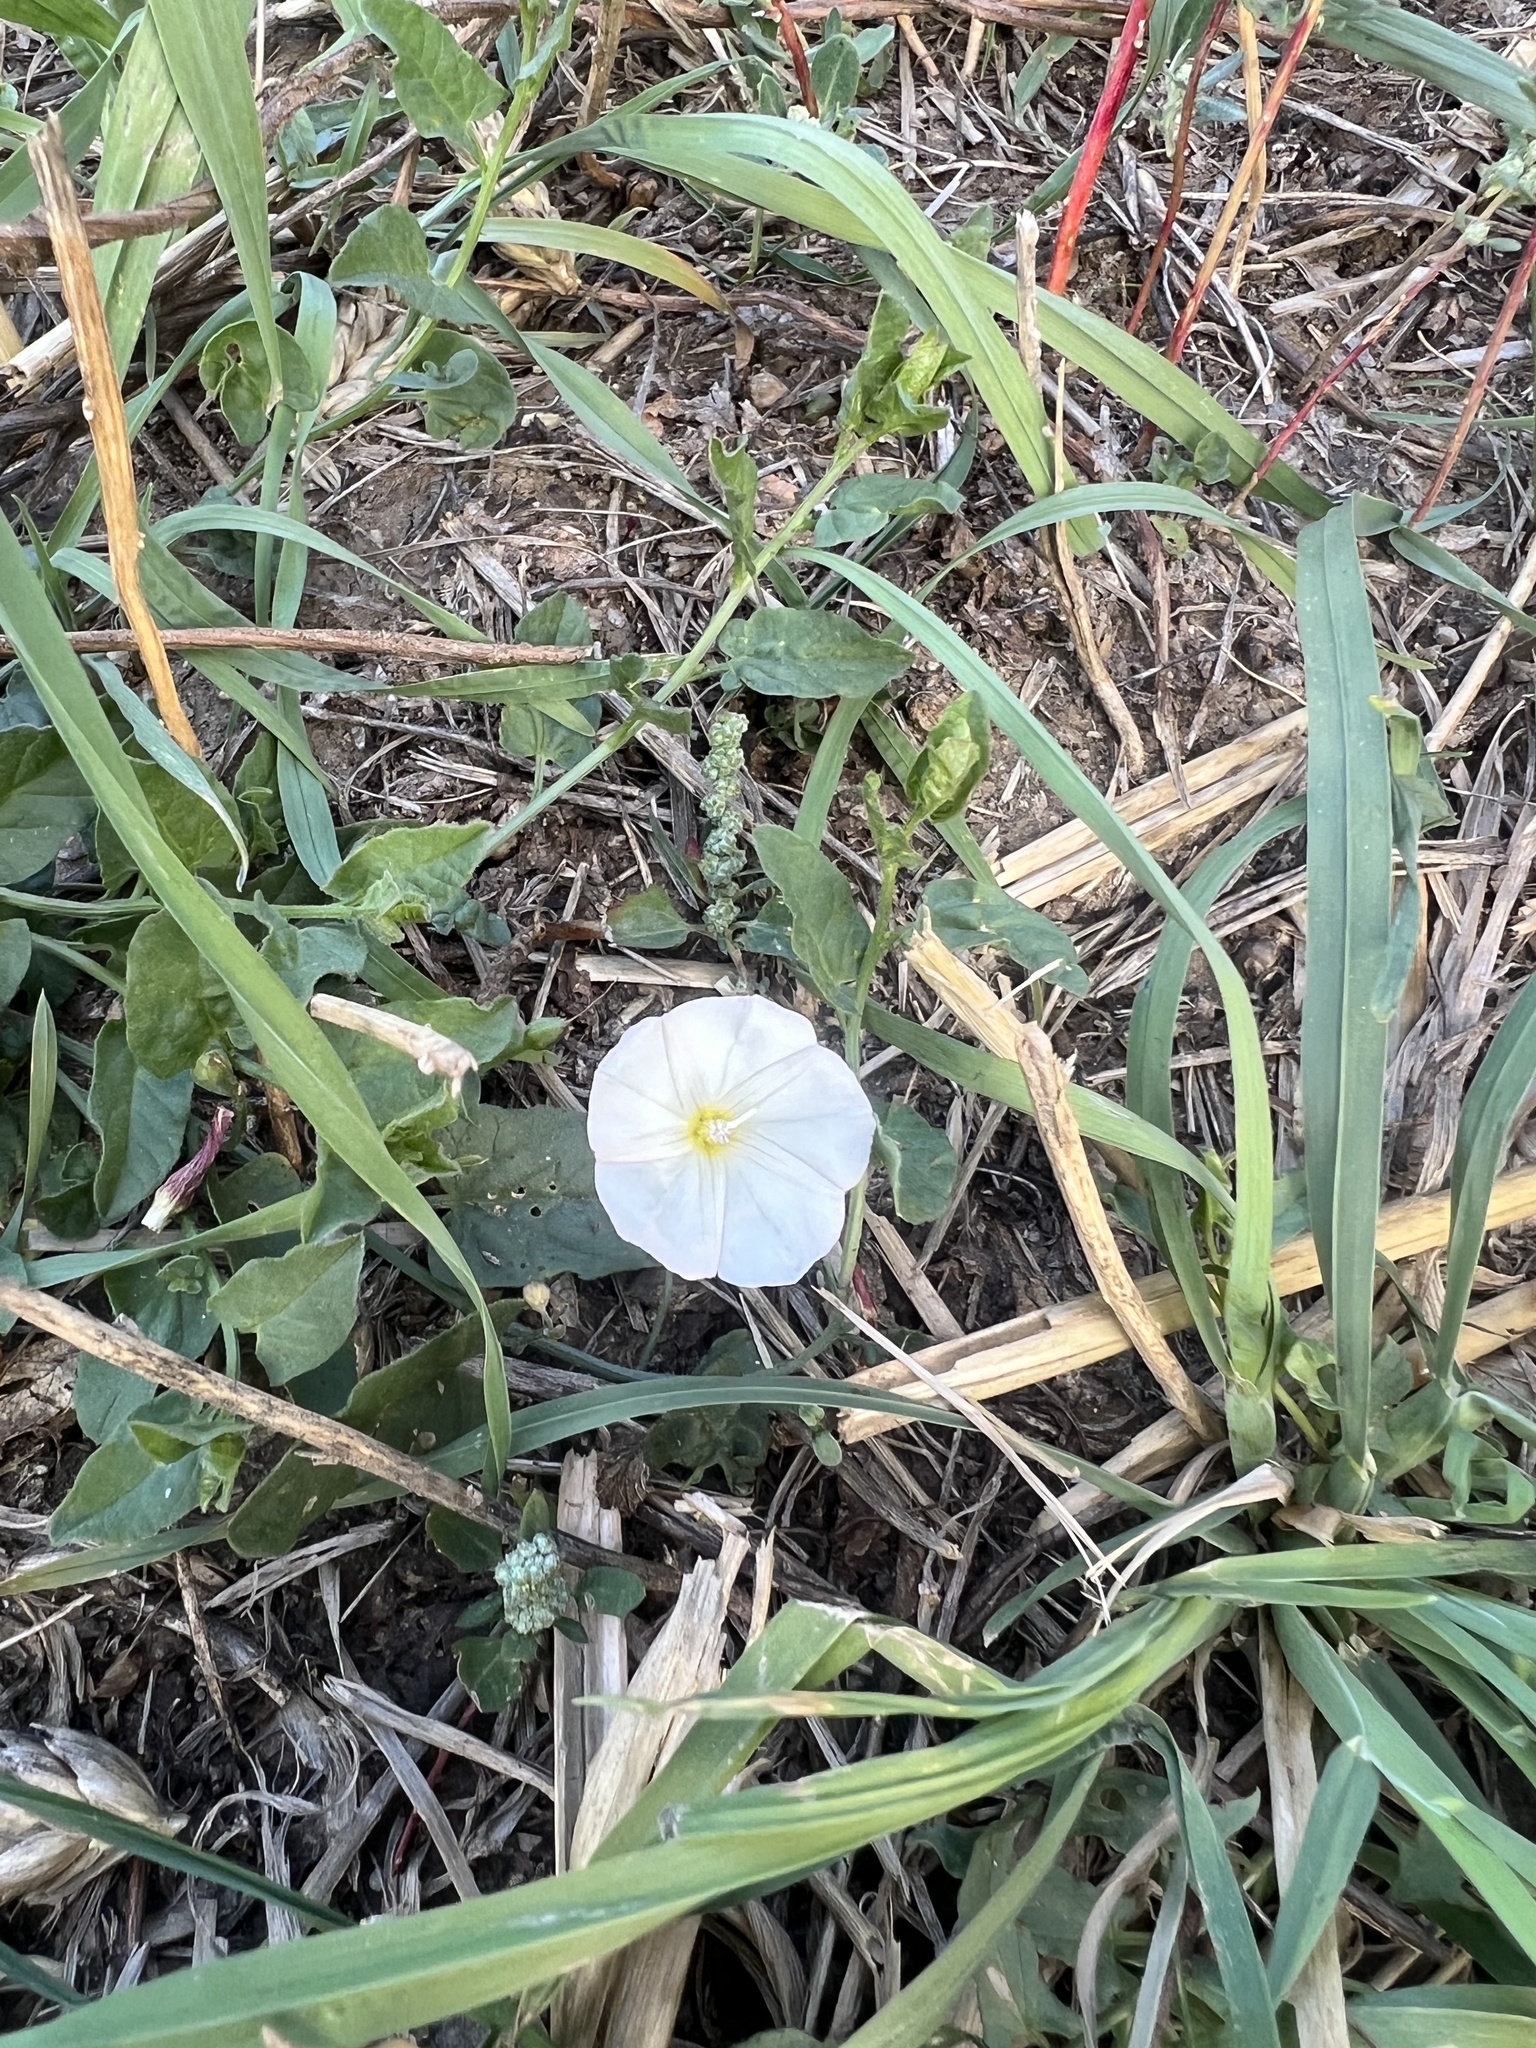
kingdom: Plantae
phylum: Tracheophyta
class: Magnoliopsida
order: Solanales
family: Convolvulaceae
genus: Convolvulus
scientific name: Convolvulus arvensis
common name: Field bindweed
